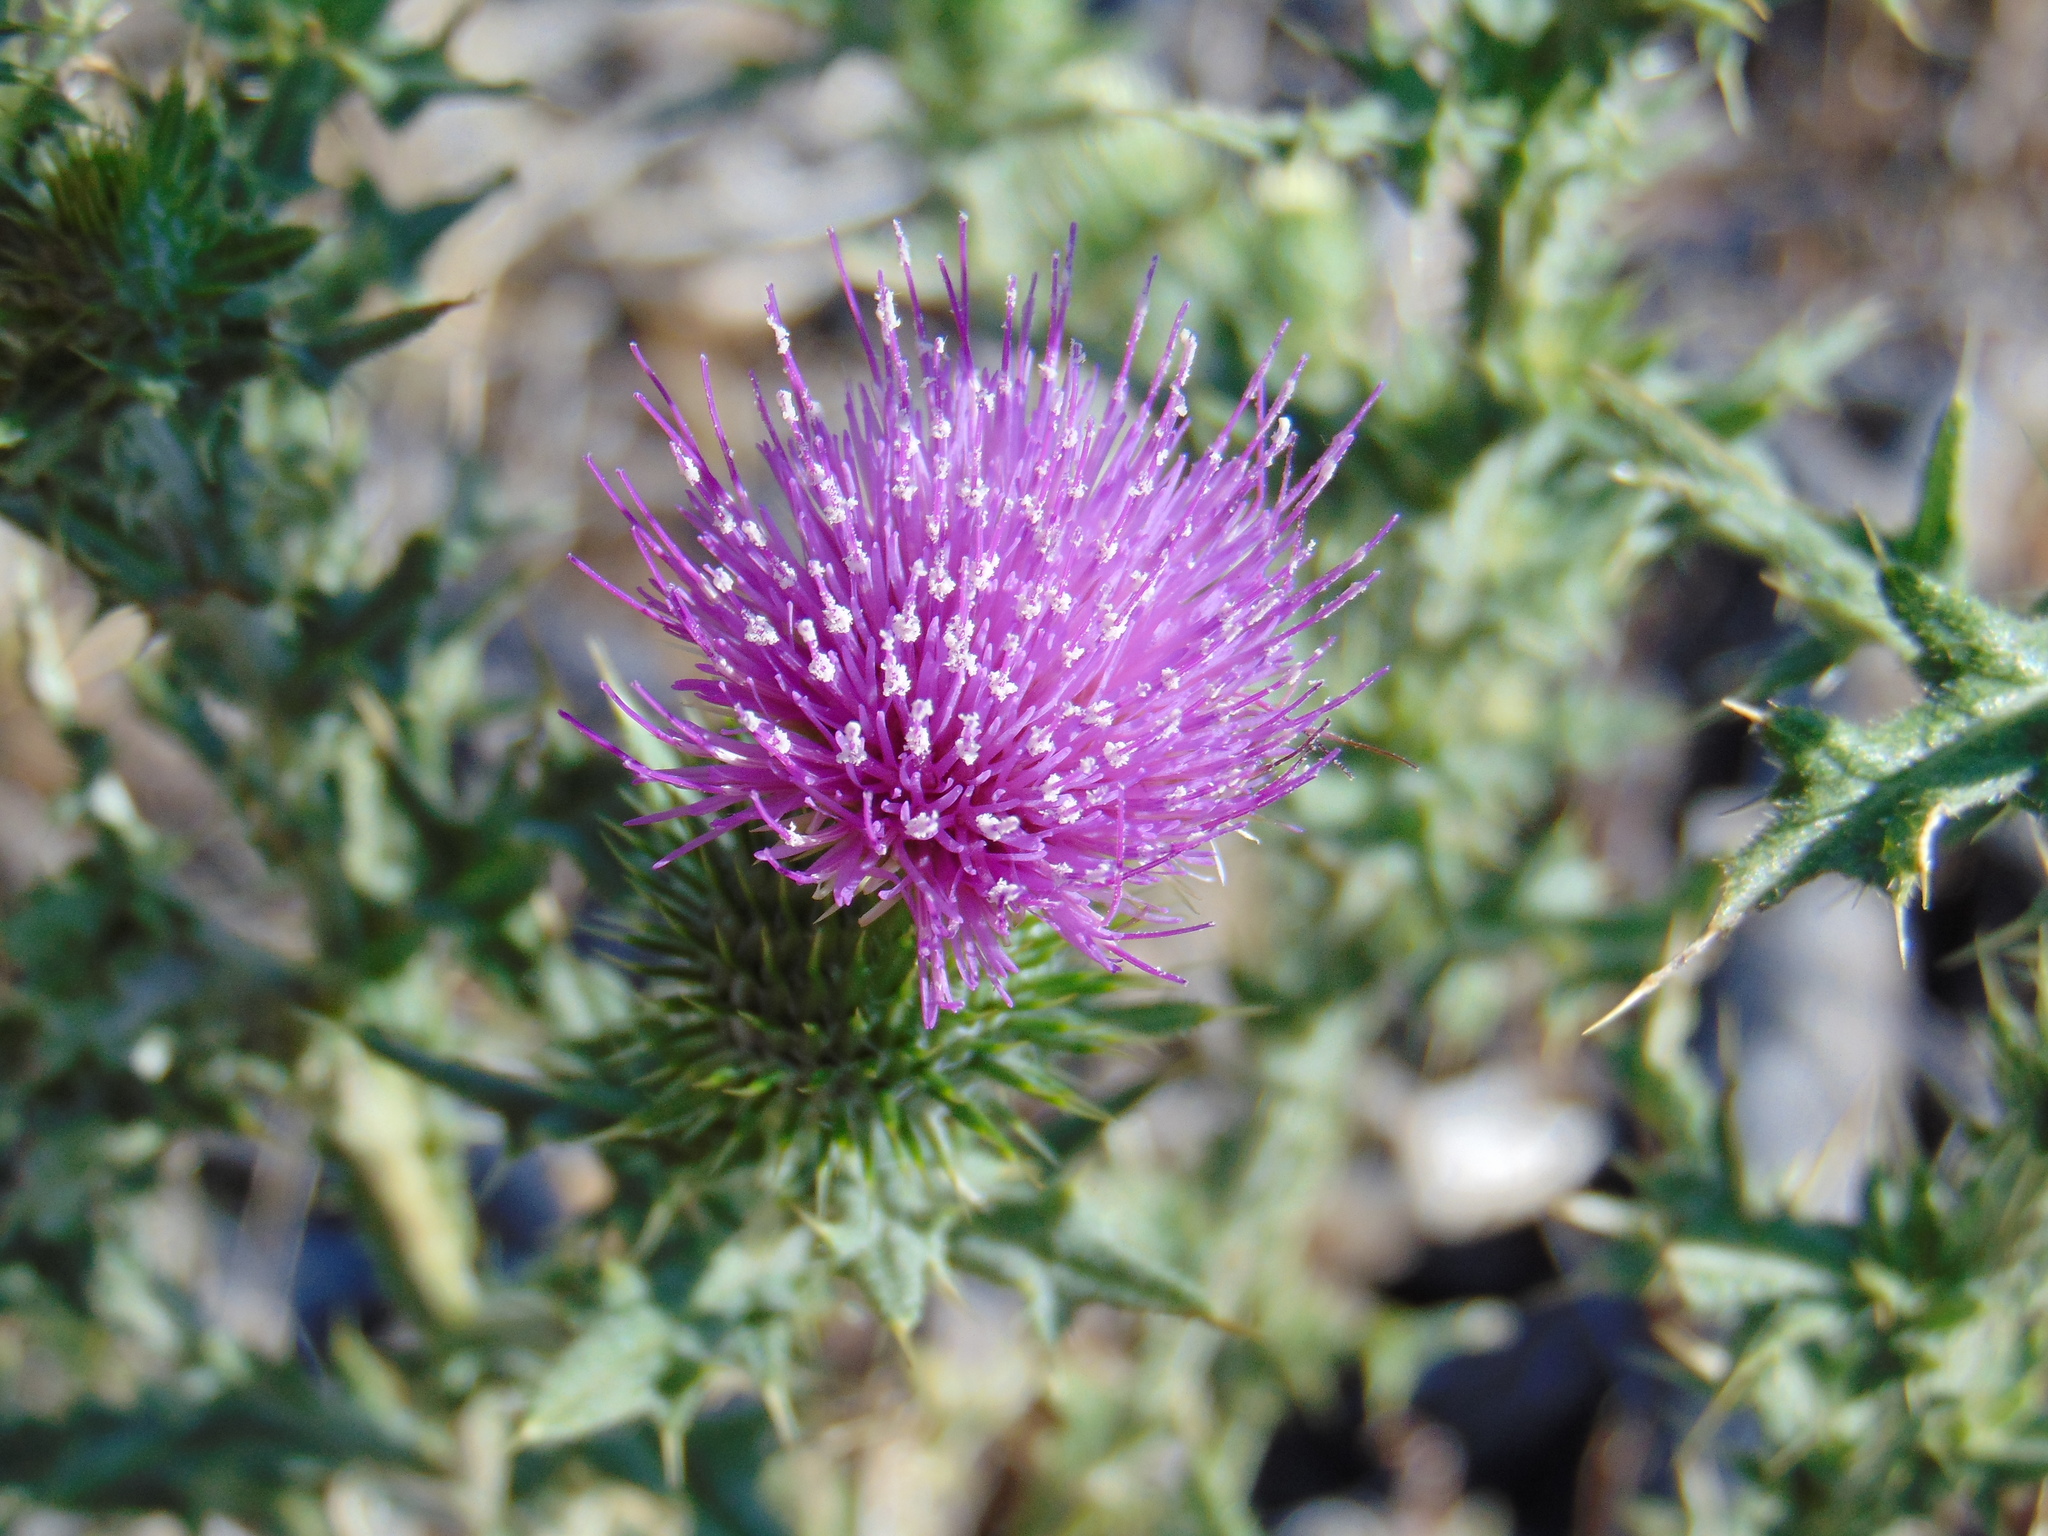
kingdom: Plantae
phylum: Tracheophyta
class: Magnoliopsida
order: Asterales
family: Asteraceae
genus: Cirsium
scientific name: Cirsium vulgare
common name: Bull thistle
